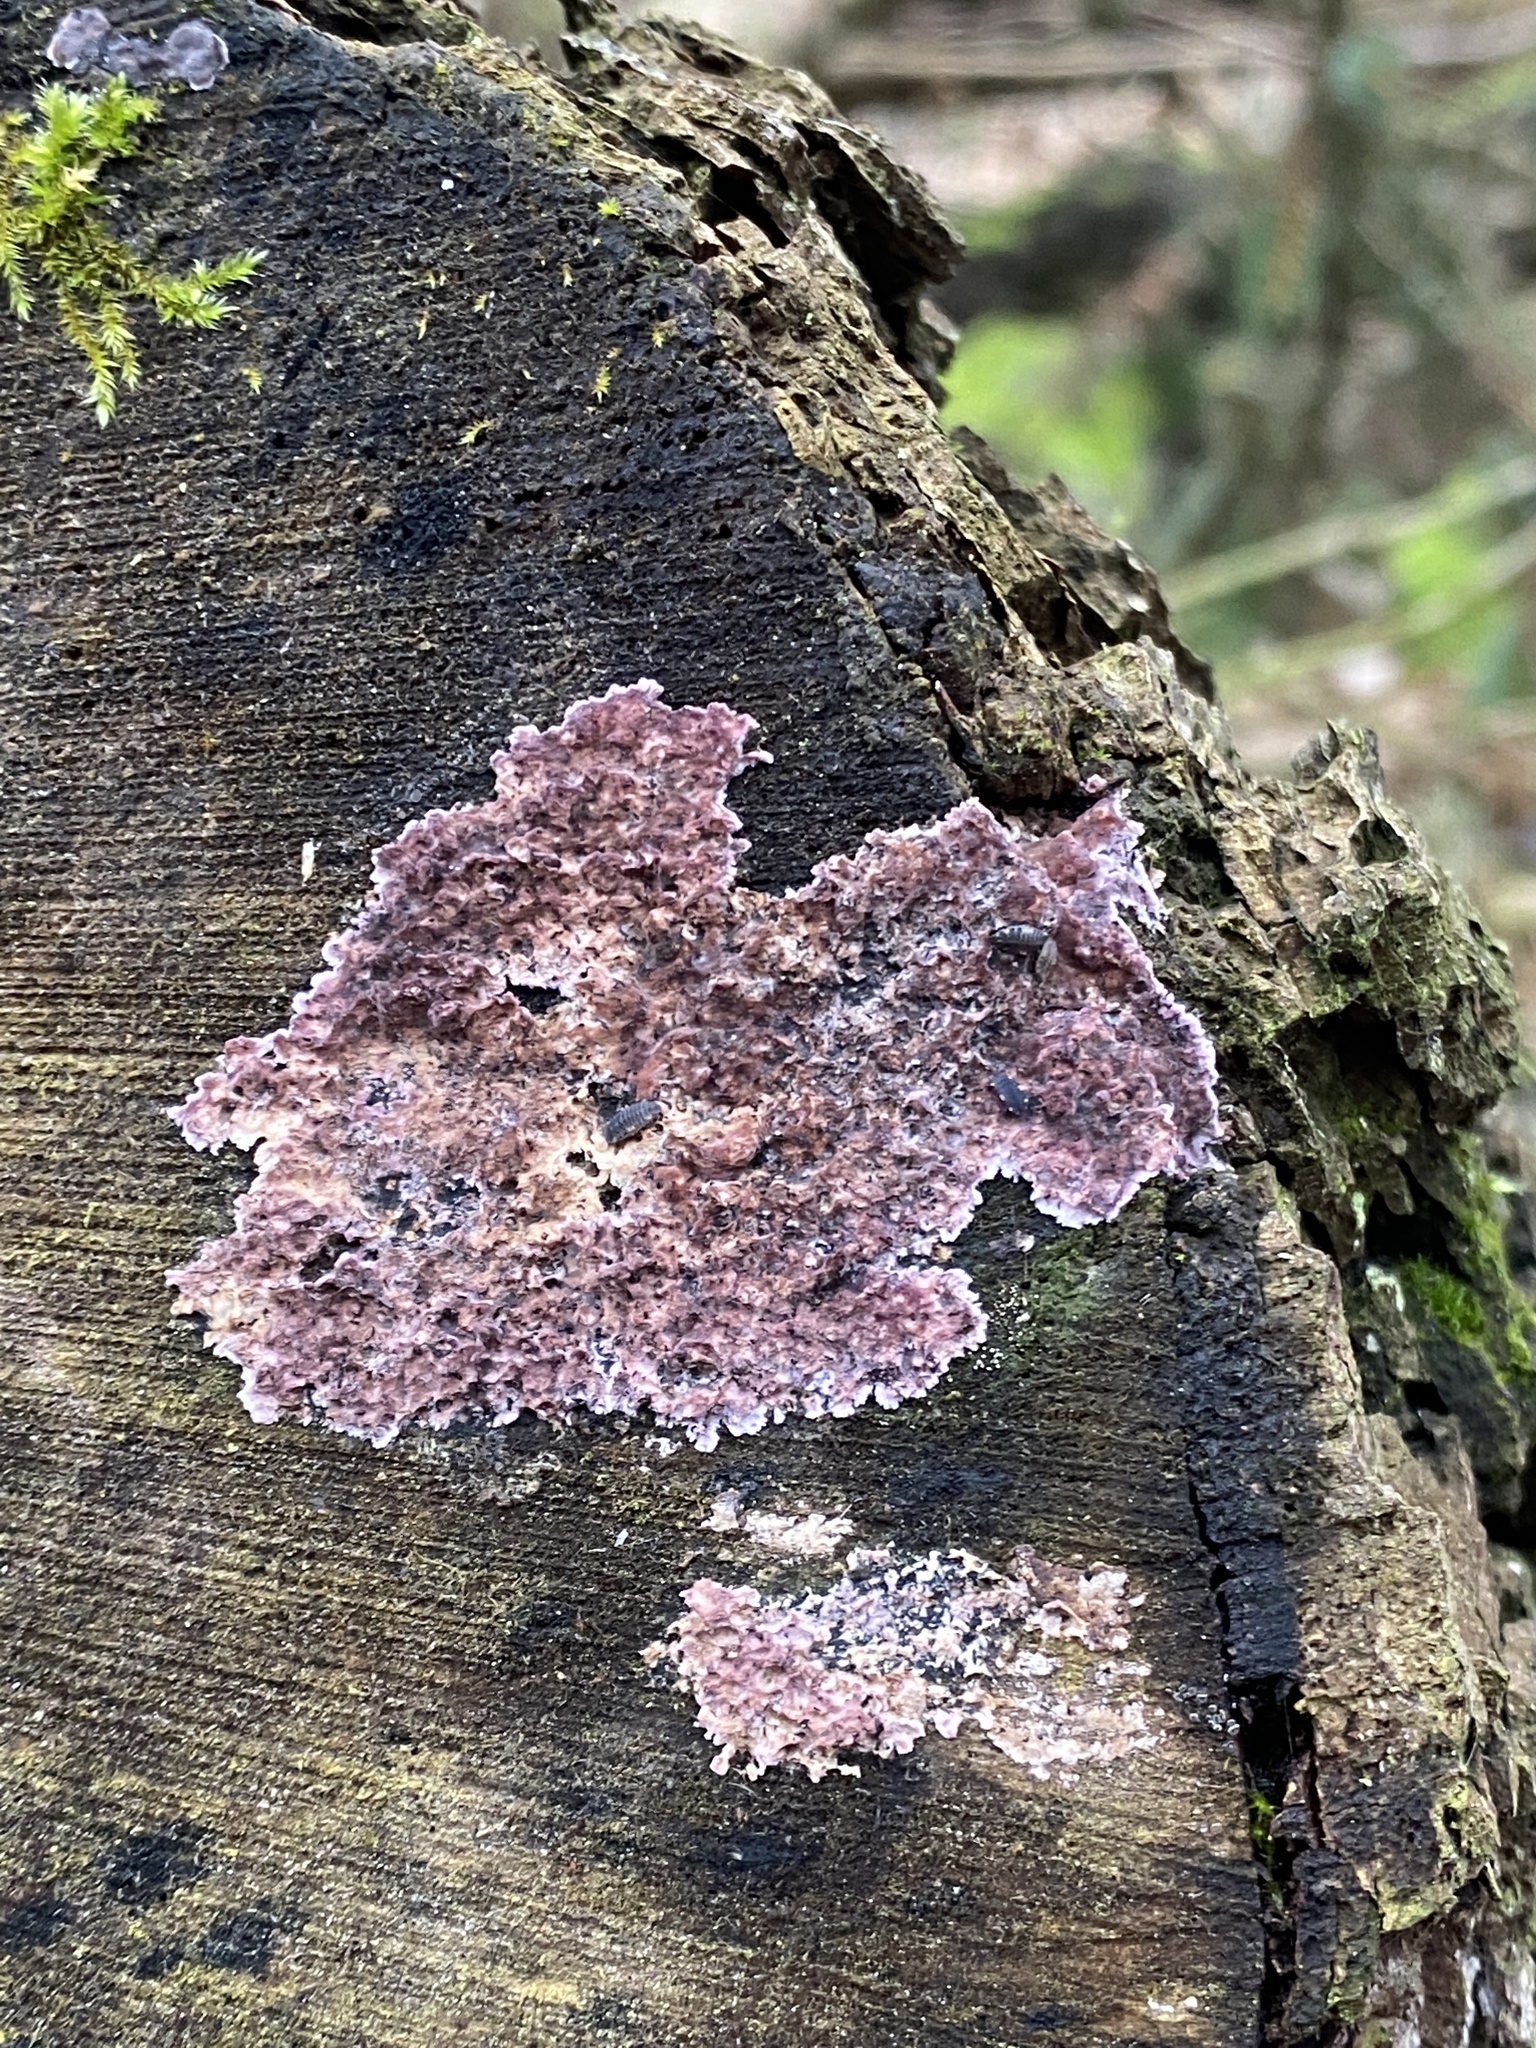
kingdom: Fungi
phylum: Basidiomycota
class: Agaricomycetes
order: Agaricales
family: Cyphellaceae
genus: Chondrostereum
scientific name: Chondrostereum purpureum
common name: Silver leaf disease
